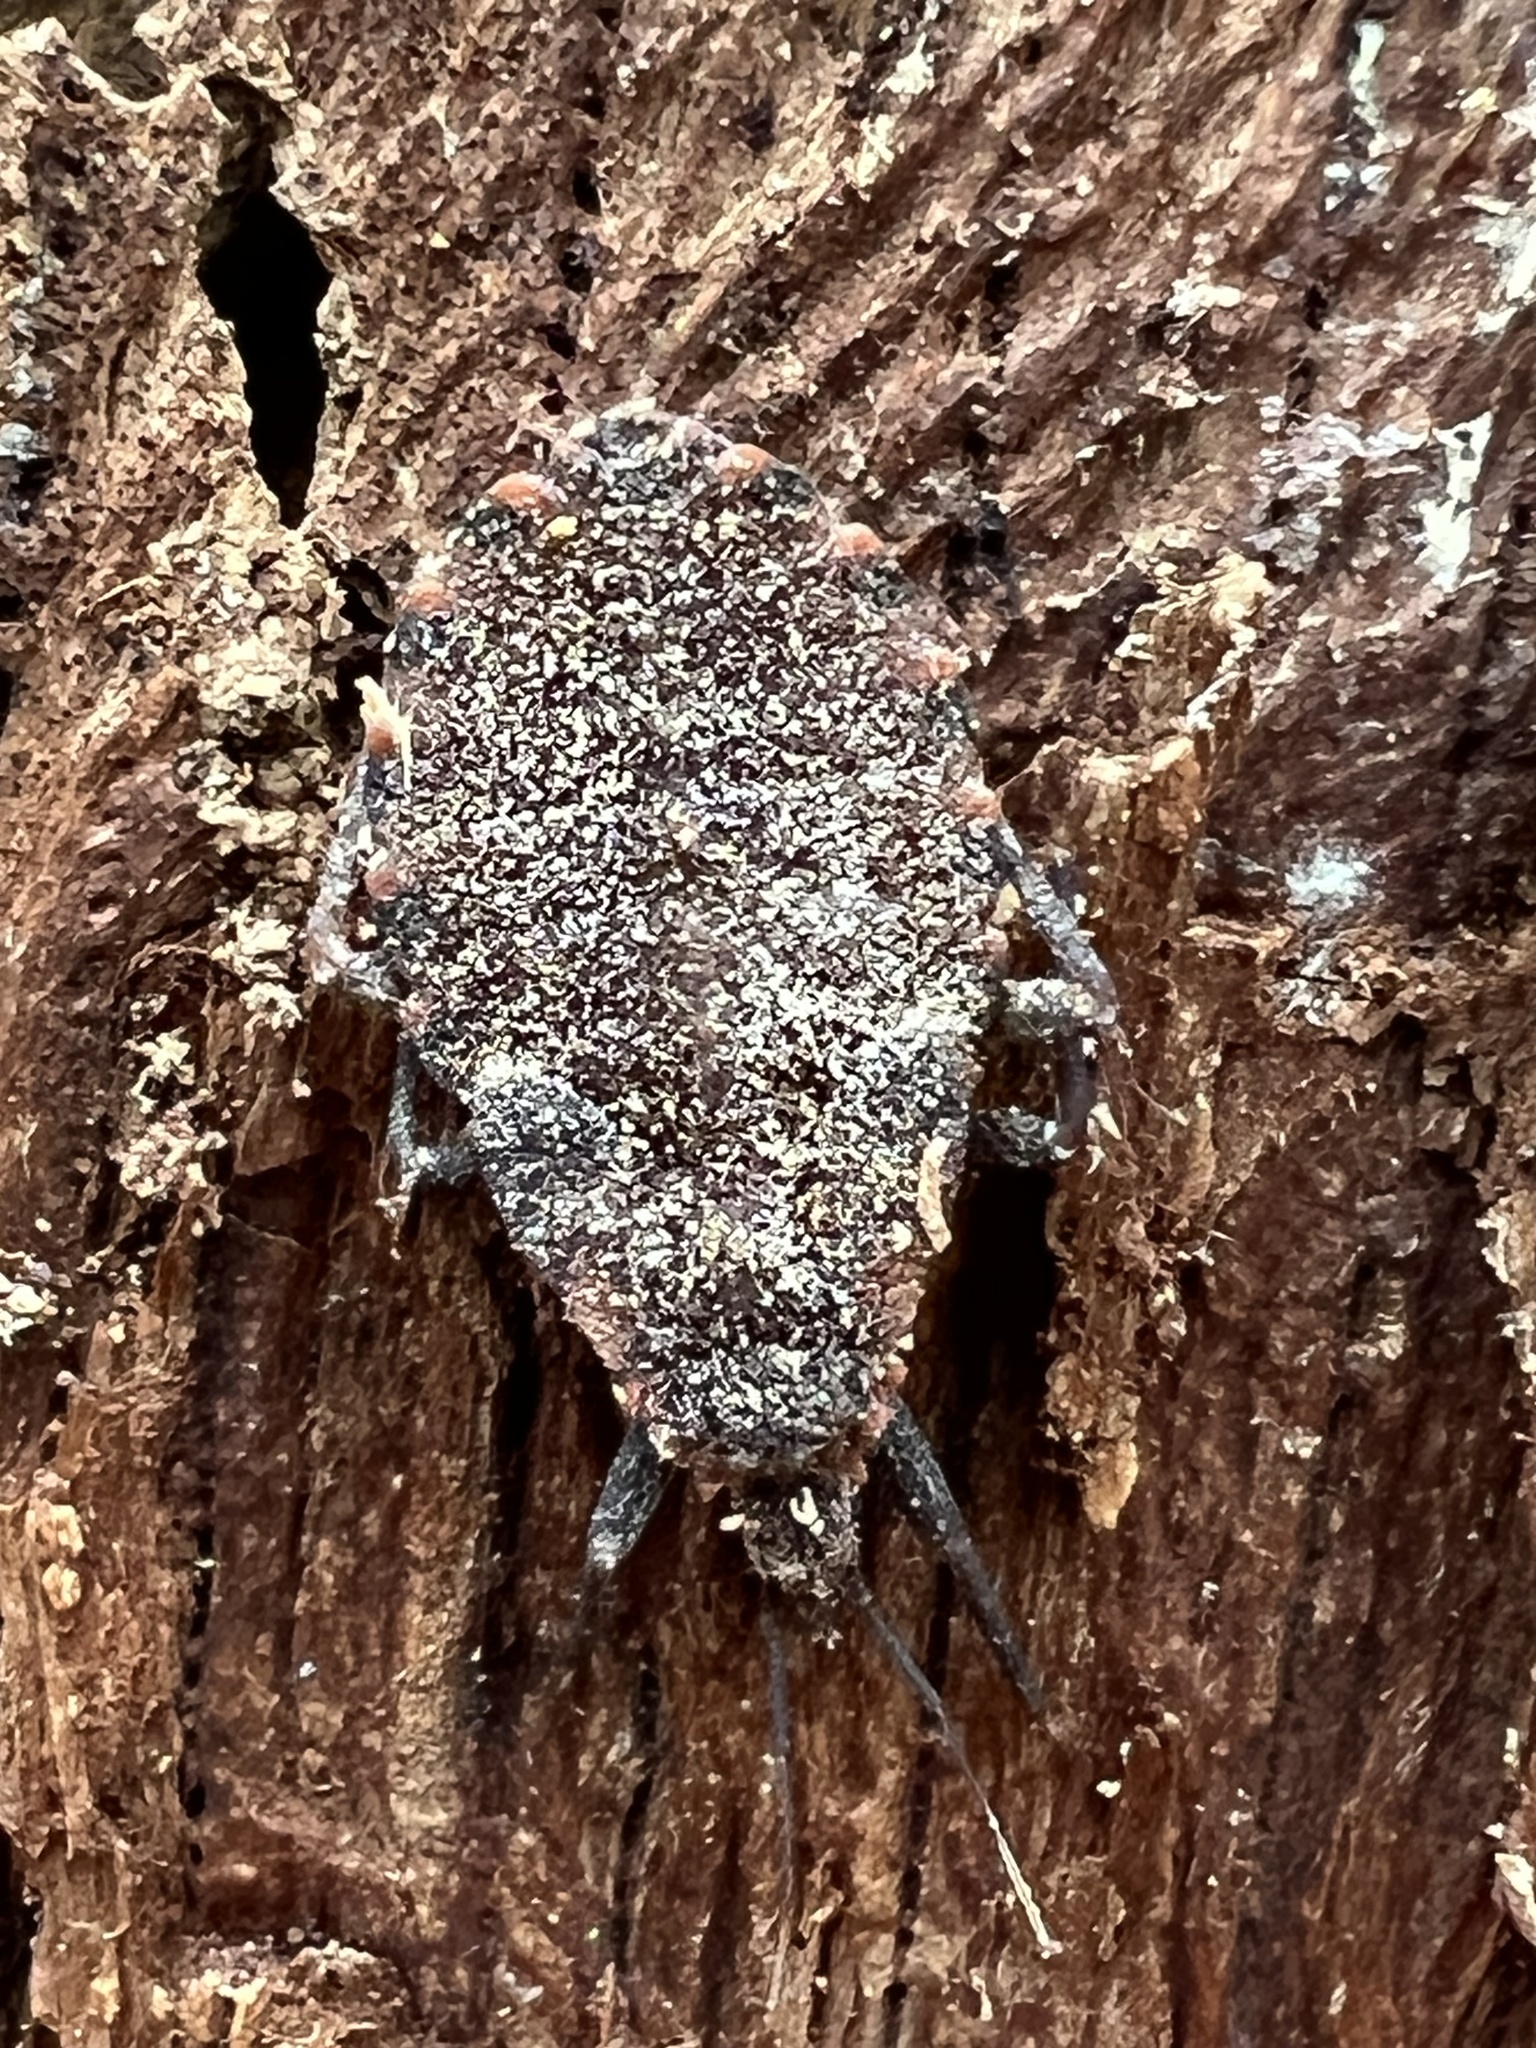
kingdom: Animalia
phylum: Arthropoda
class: Insecta
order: Hemiptera
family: Reduviidae
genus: Triatoma
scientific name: Triatoma sanguisuga
